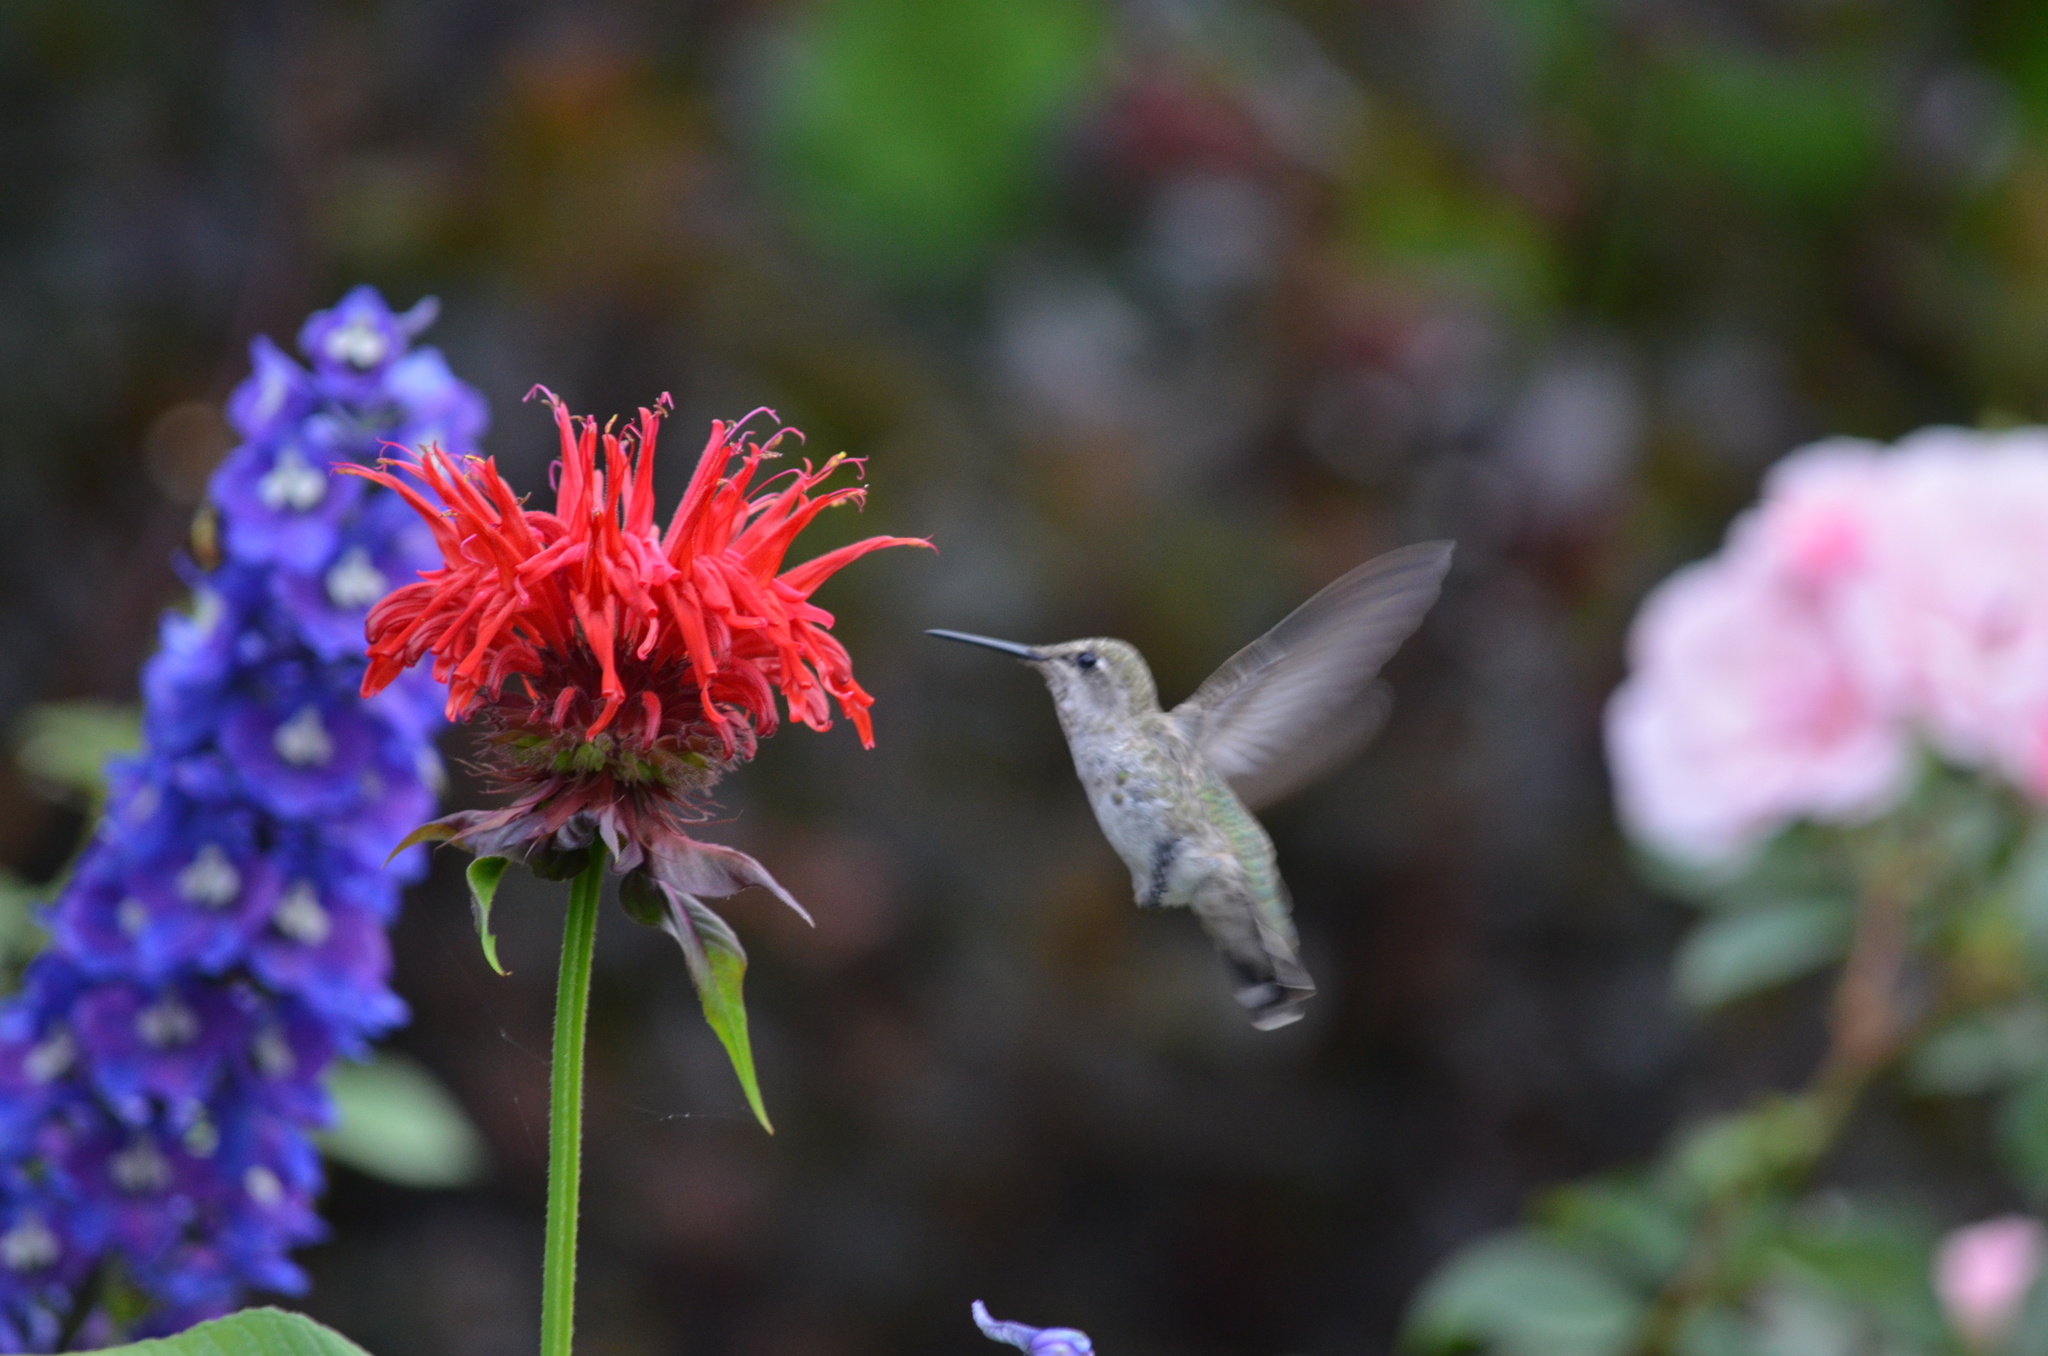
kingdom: Animalia
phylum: Chordata
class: Aves
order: Apodiformes
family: Trochilidae
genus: Calypte
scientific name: Calypte anna
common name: Anna's hummingbird
